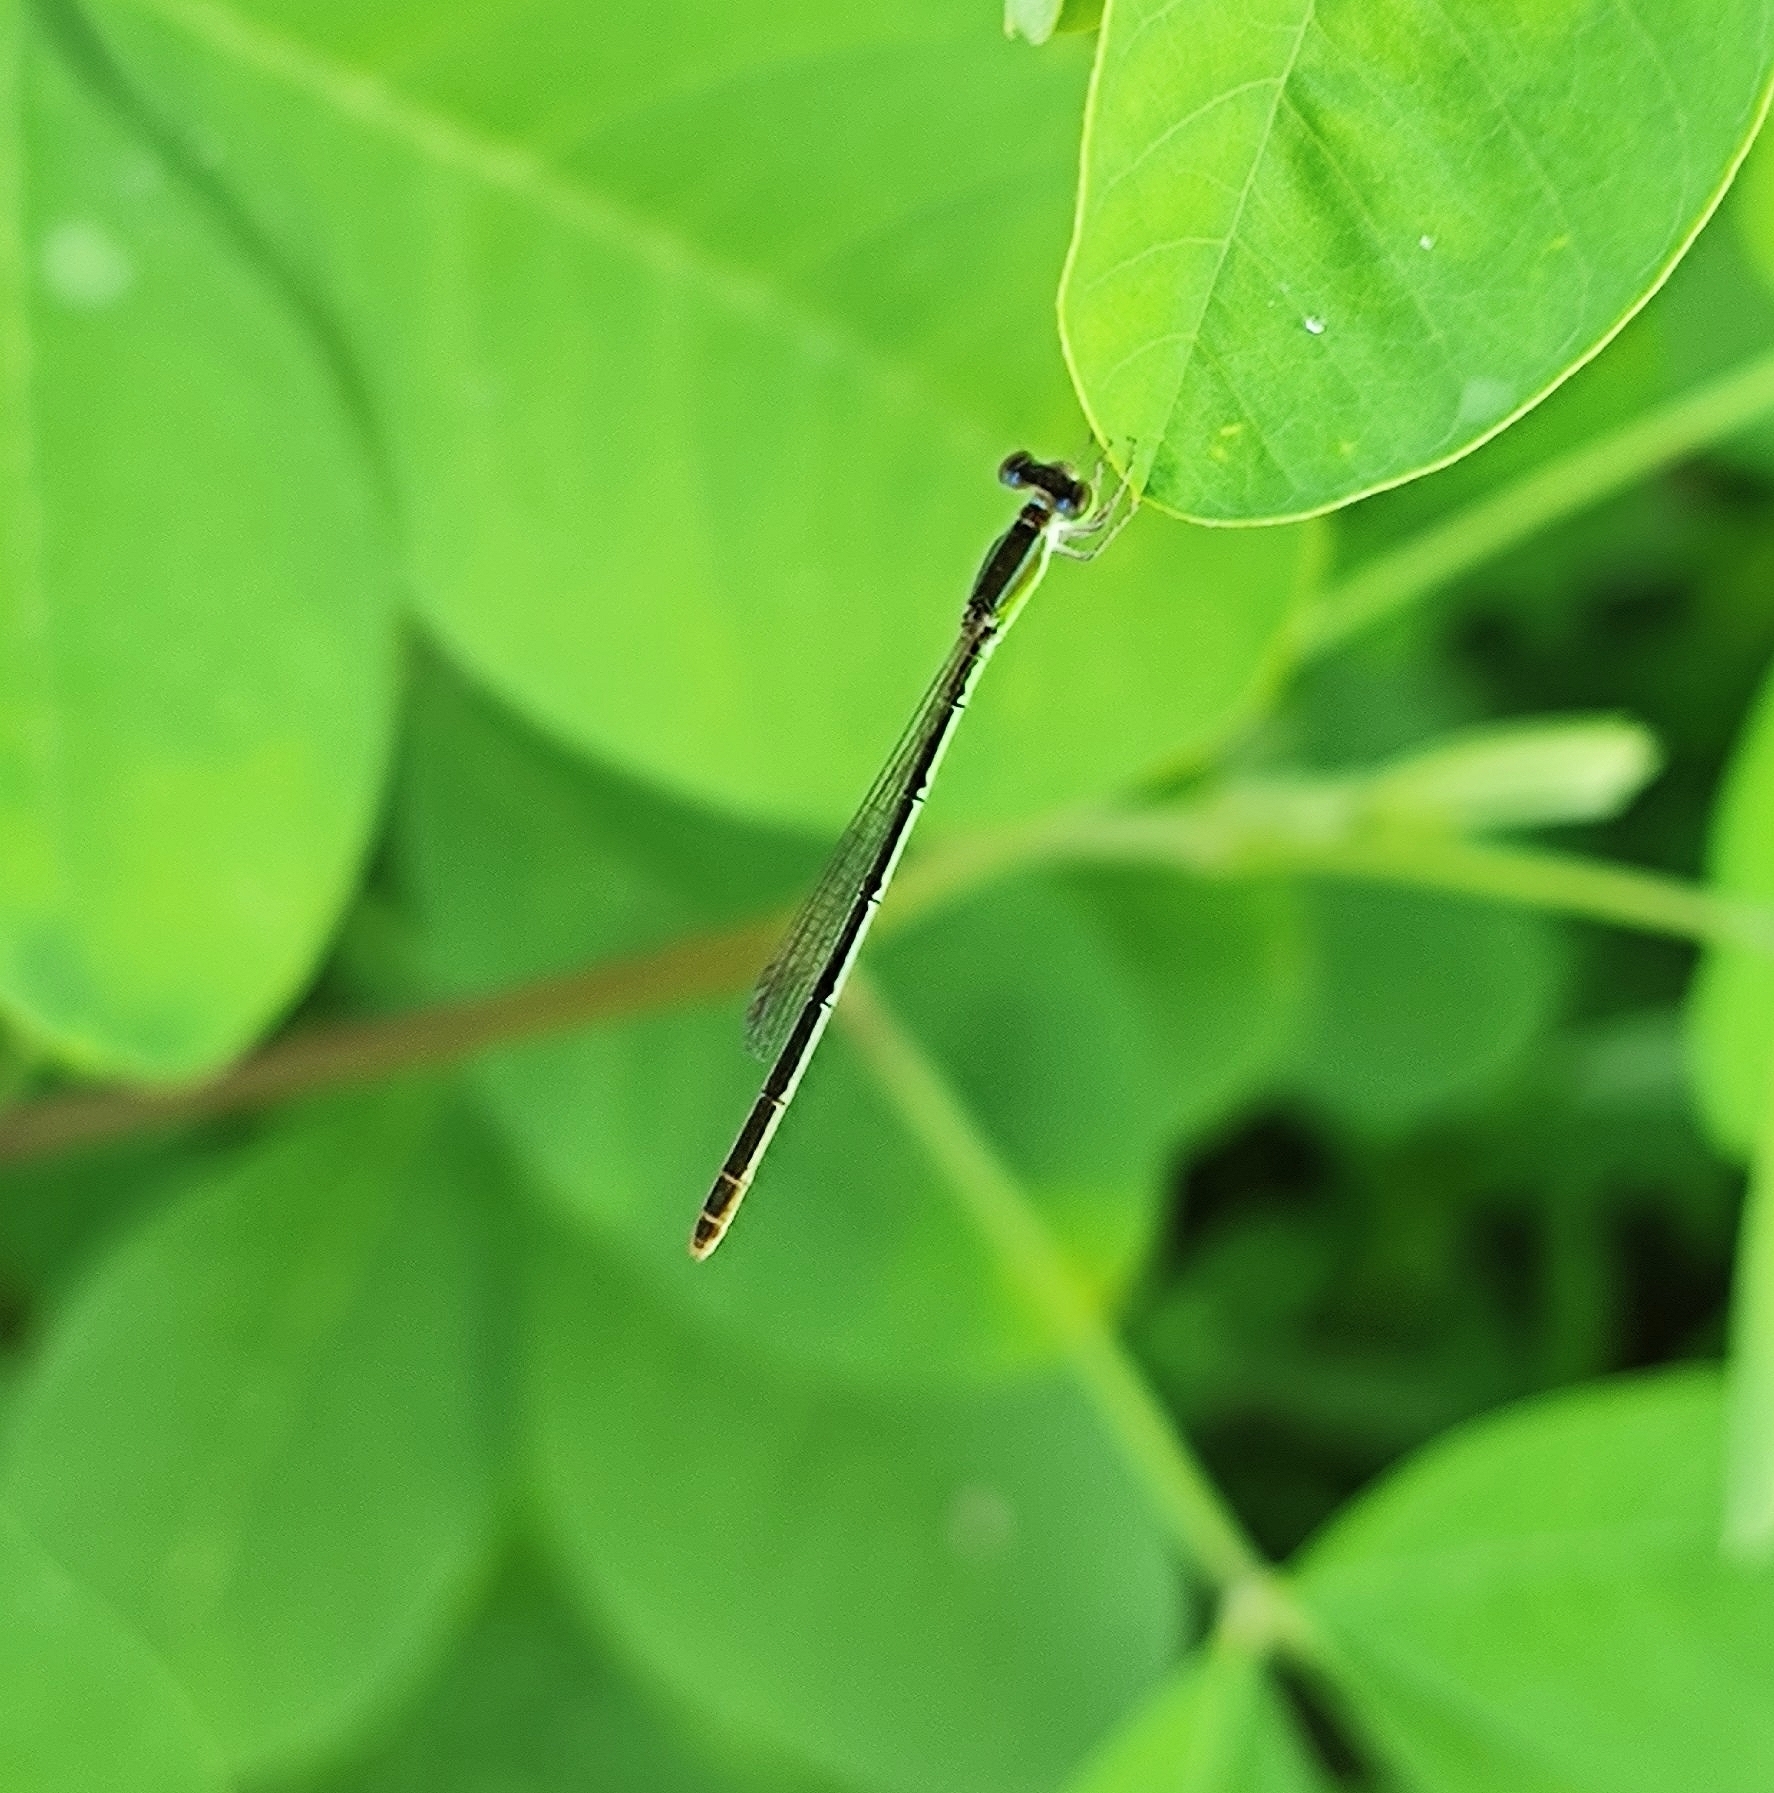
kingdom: Animalia
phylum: Arthropoda
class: Insecta
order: Odonata
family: Coenagrionidae
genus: Agriocnemis
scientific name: Agriocnemis pygmaea
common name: Pygmy wisp
